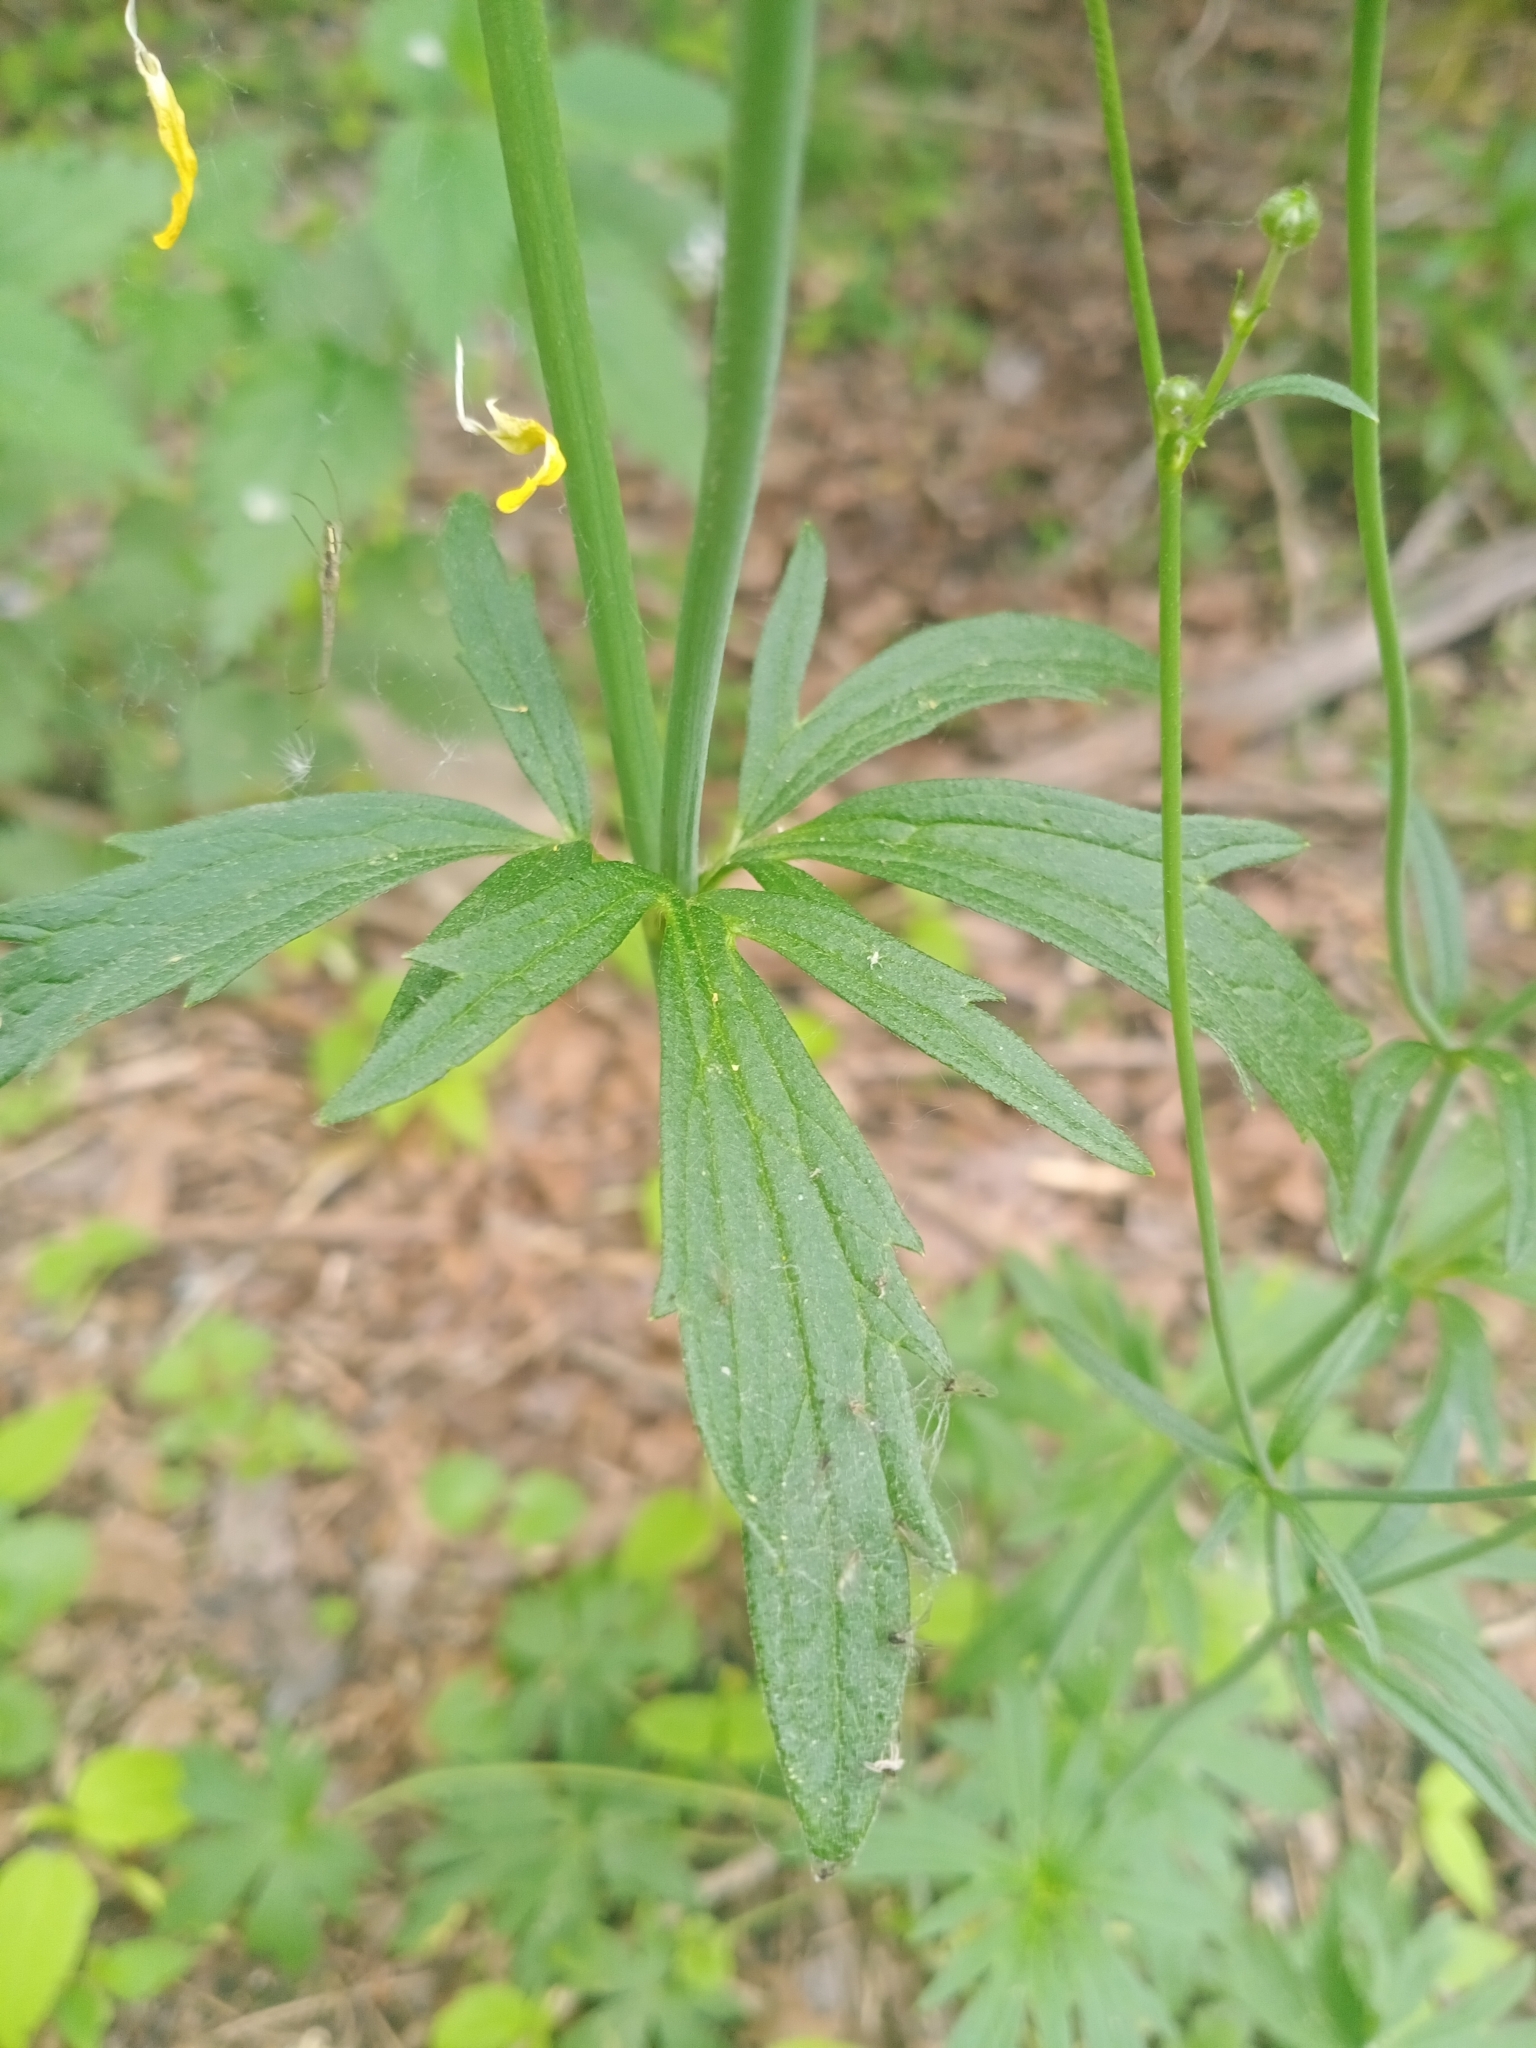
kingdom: Plantae
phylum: Tracheophyta
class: Magnoliopsida
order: Ranunculales
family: Ranunculaceae
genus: Ranunculus
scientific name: Ranunculus acris
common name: Meadow buttercup
